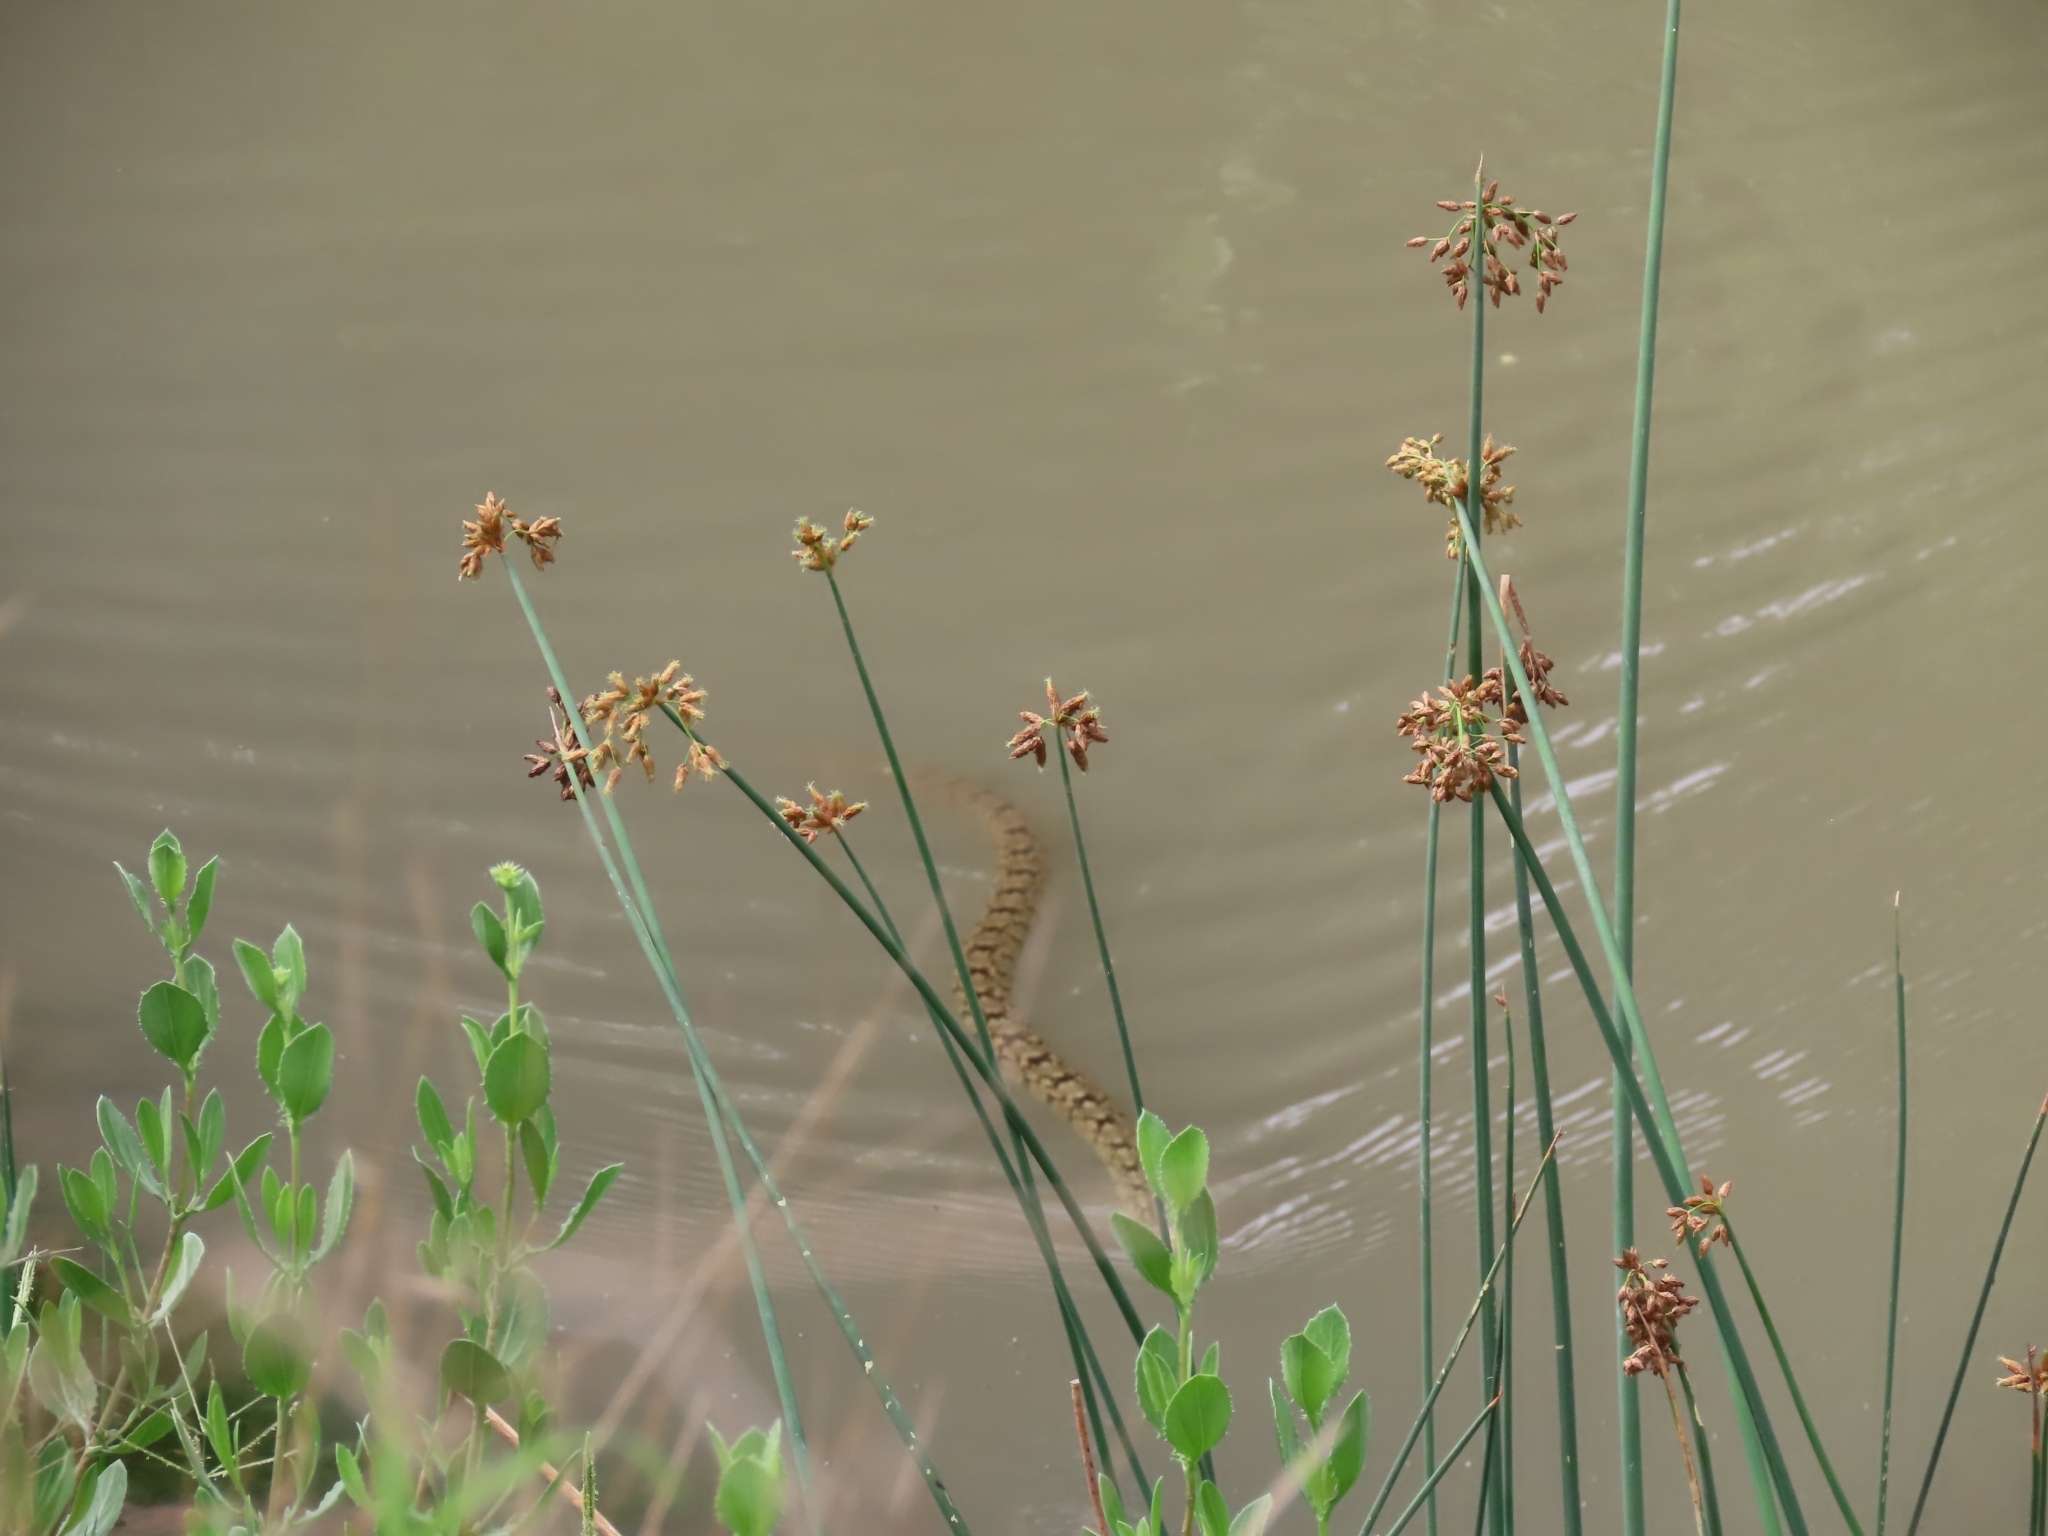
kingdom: Animalia
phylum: Chordata
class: Squamata
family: Colubridae
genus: Nerodia
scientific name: Nerodia rhombifer
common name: Diamondback water snake
